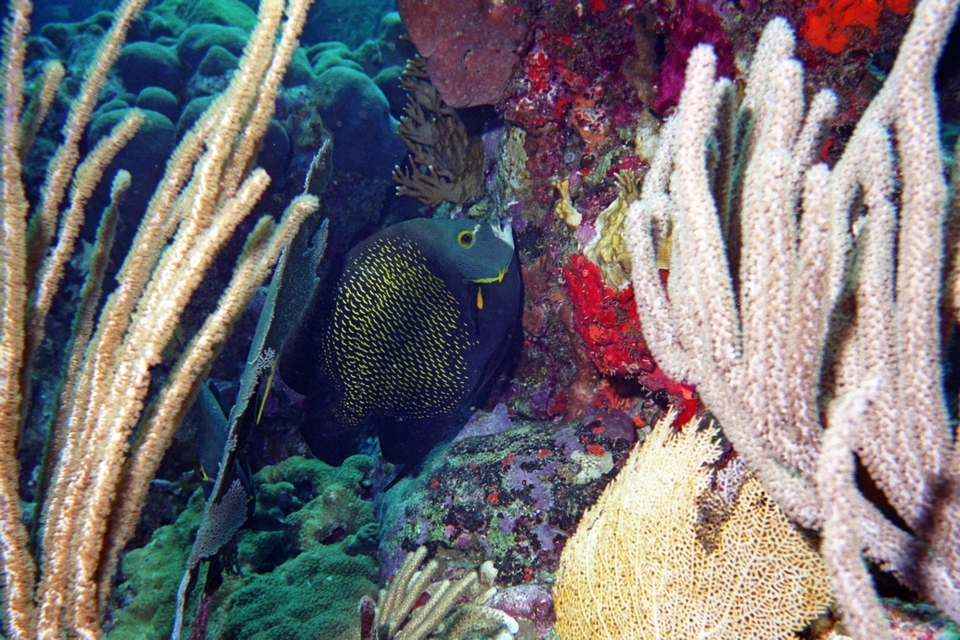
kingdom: Animalia
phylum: Chordata
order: Perciformes
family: Pomacanthidae
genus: Pomacanthus
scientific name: Pomacanthus paru
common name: French angelfish
